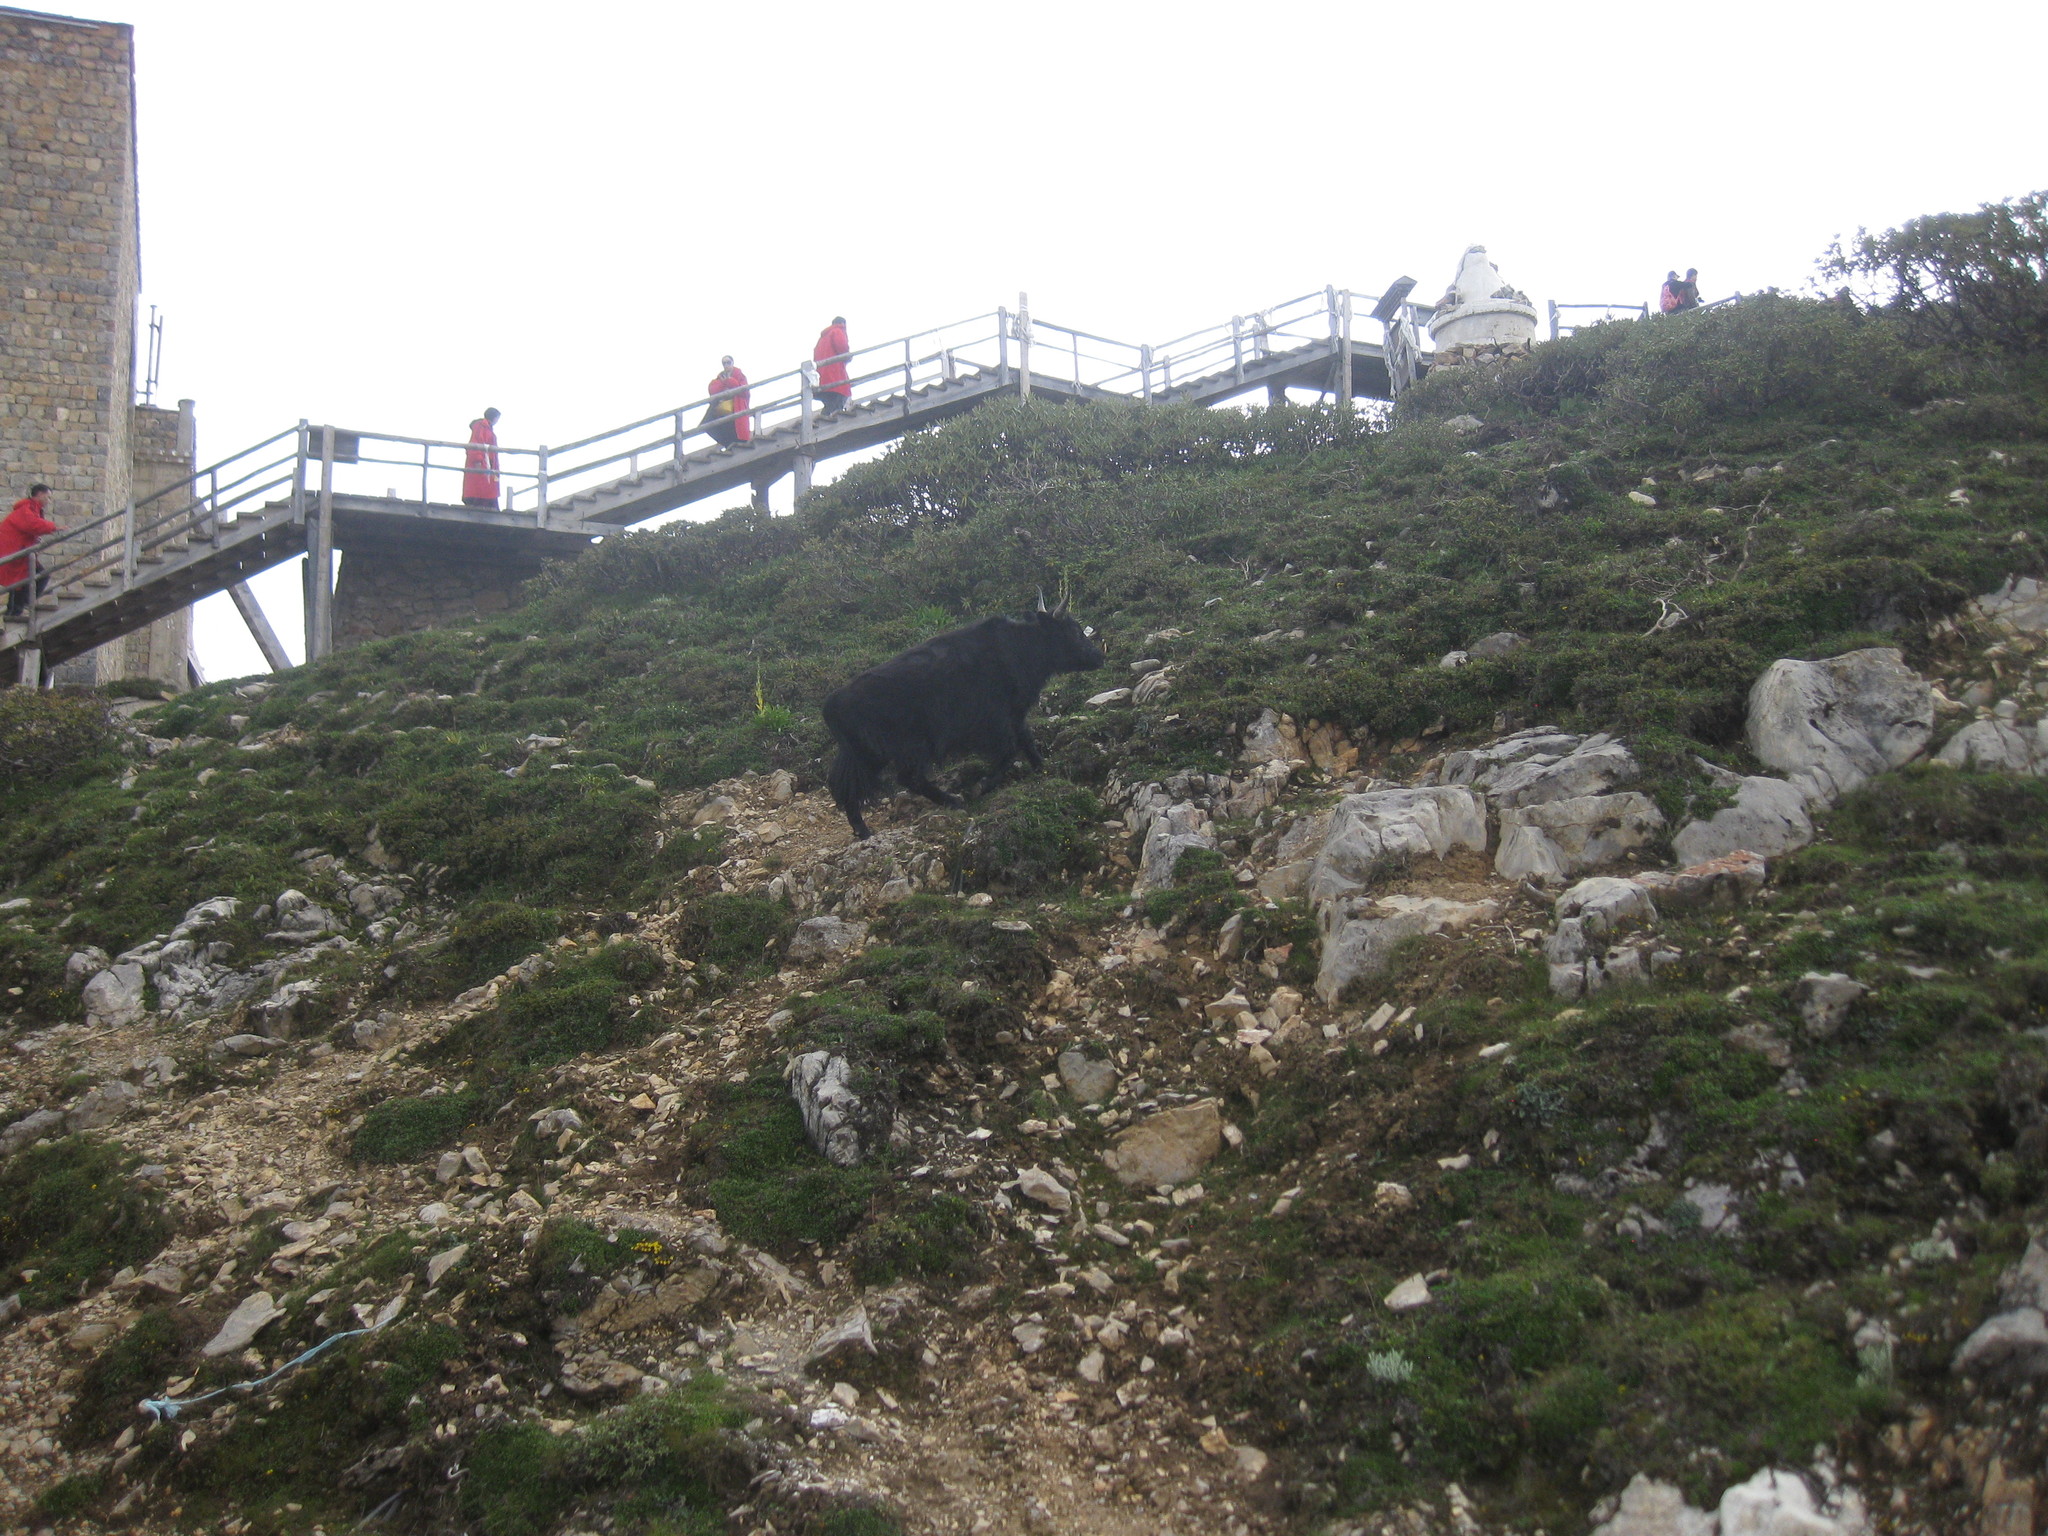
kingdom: Animalia
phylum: Chordata
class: Mammalia
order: Artiodactyla
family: Bovidae
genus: Bos
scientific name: Bos grunniens
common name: Yak
